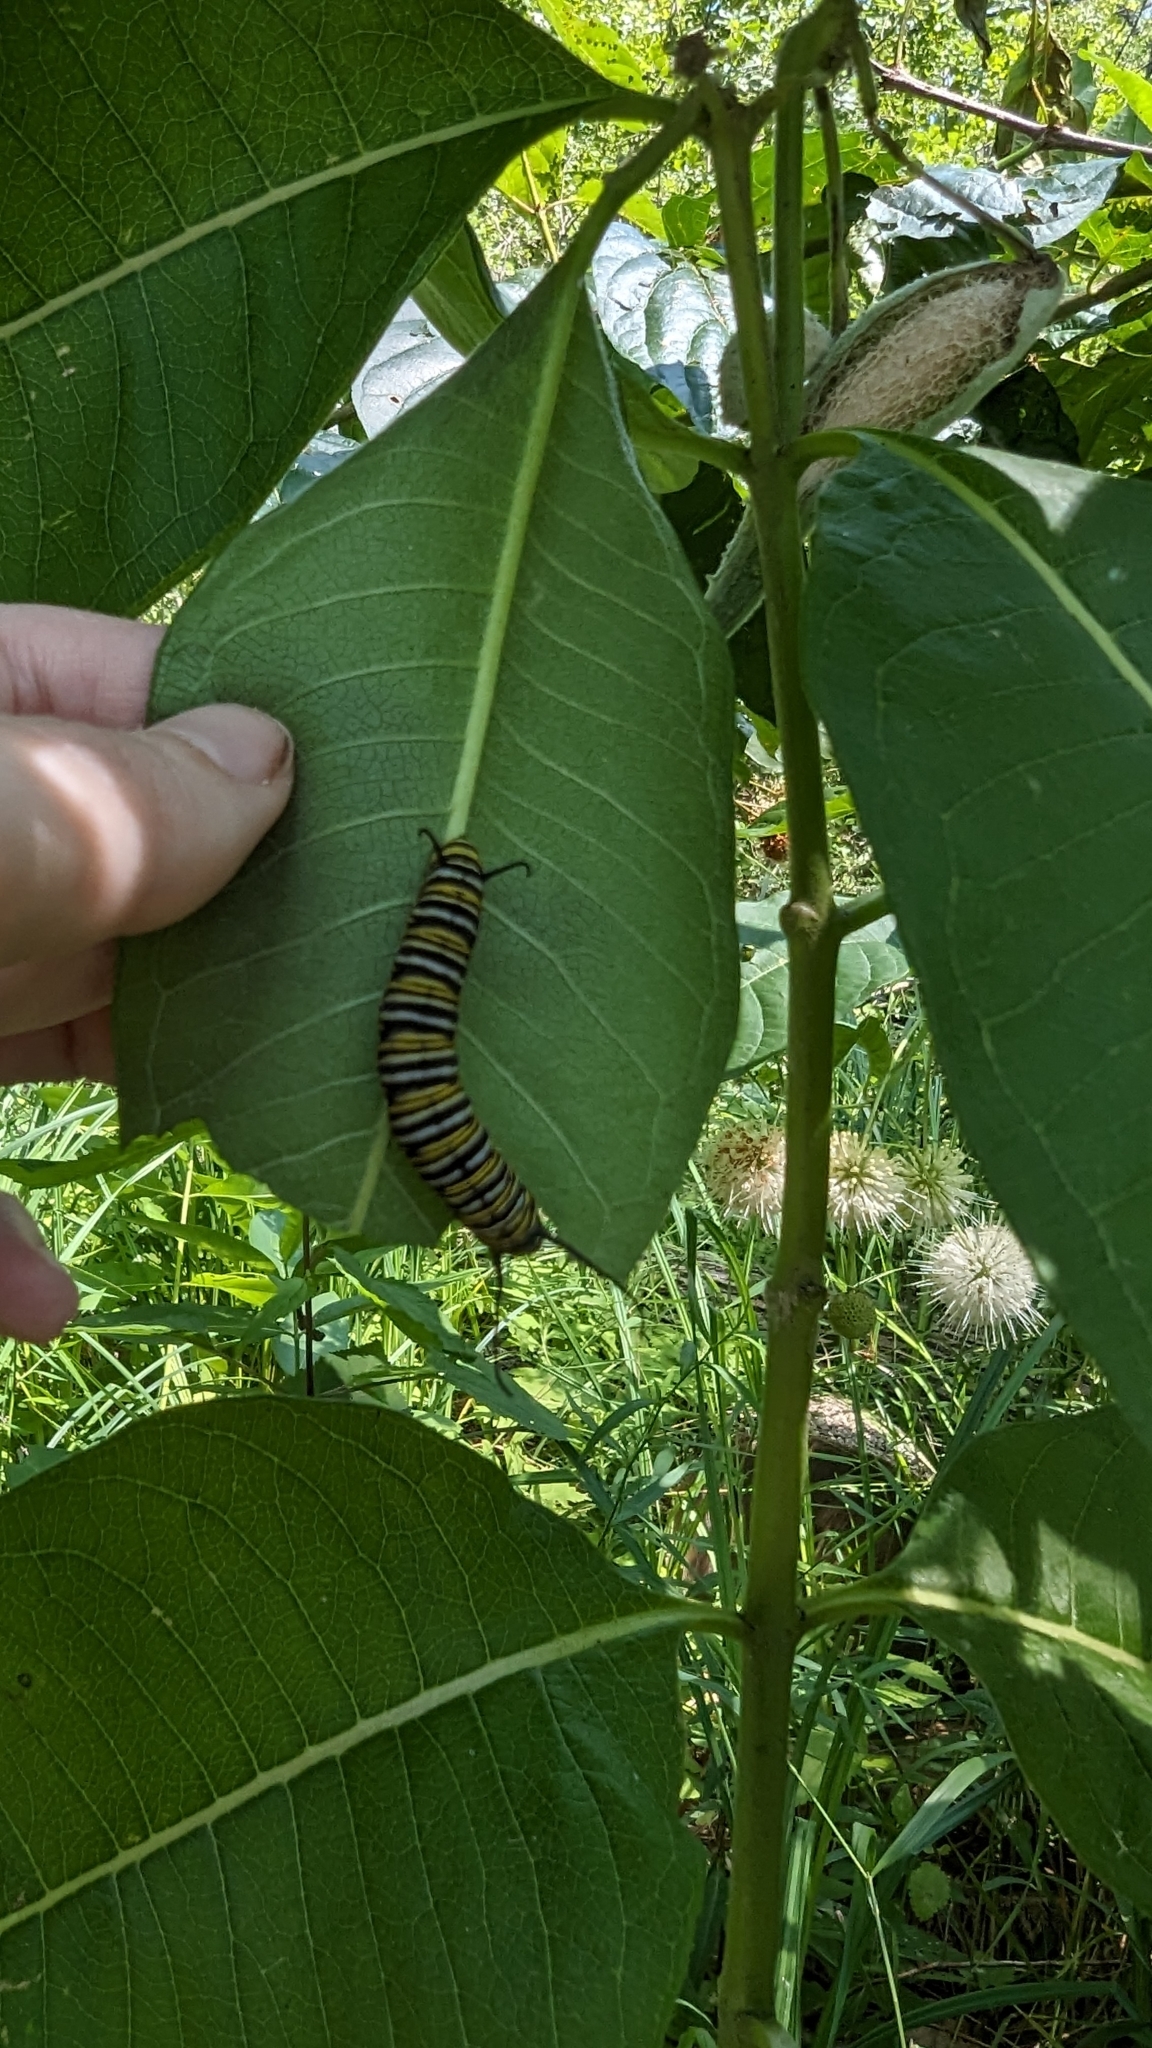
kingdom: Animalia
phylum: Arthropoda
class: Insecta
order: Lepidoptera
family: Nymphalidae
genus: Danaus
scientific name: Danaus plexippus
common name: Monarch
